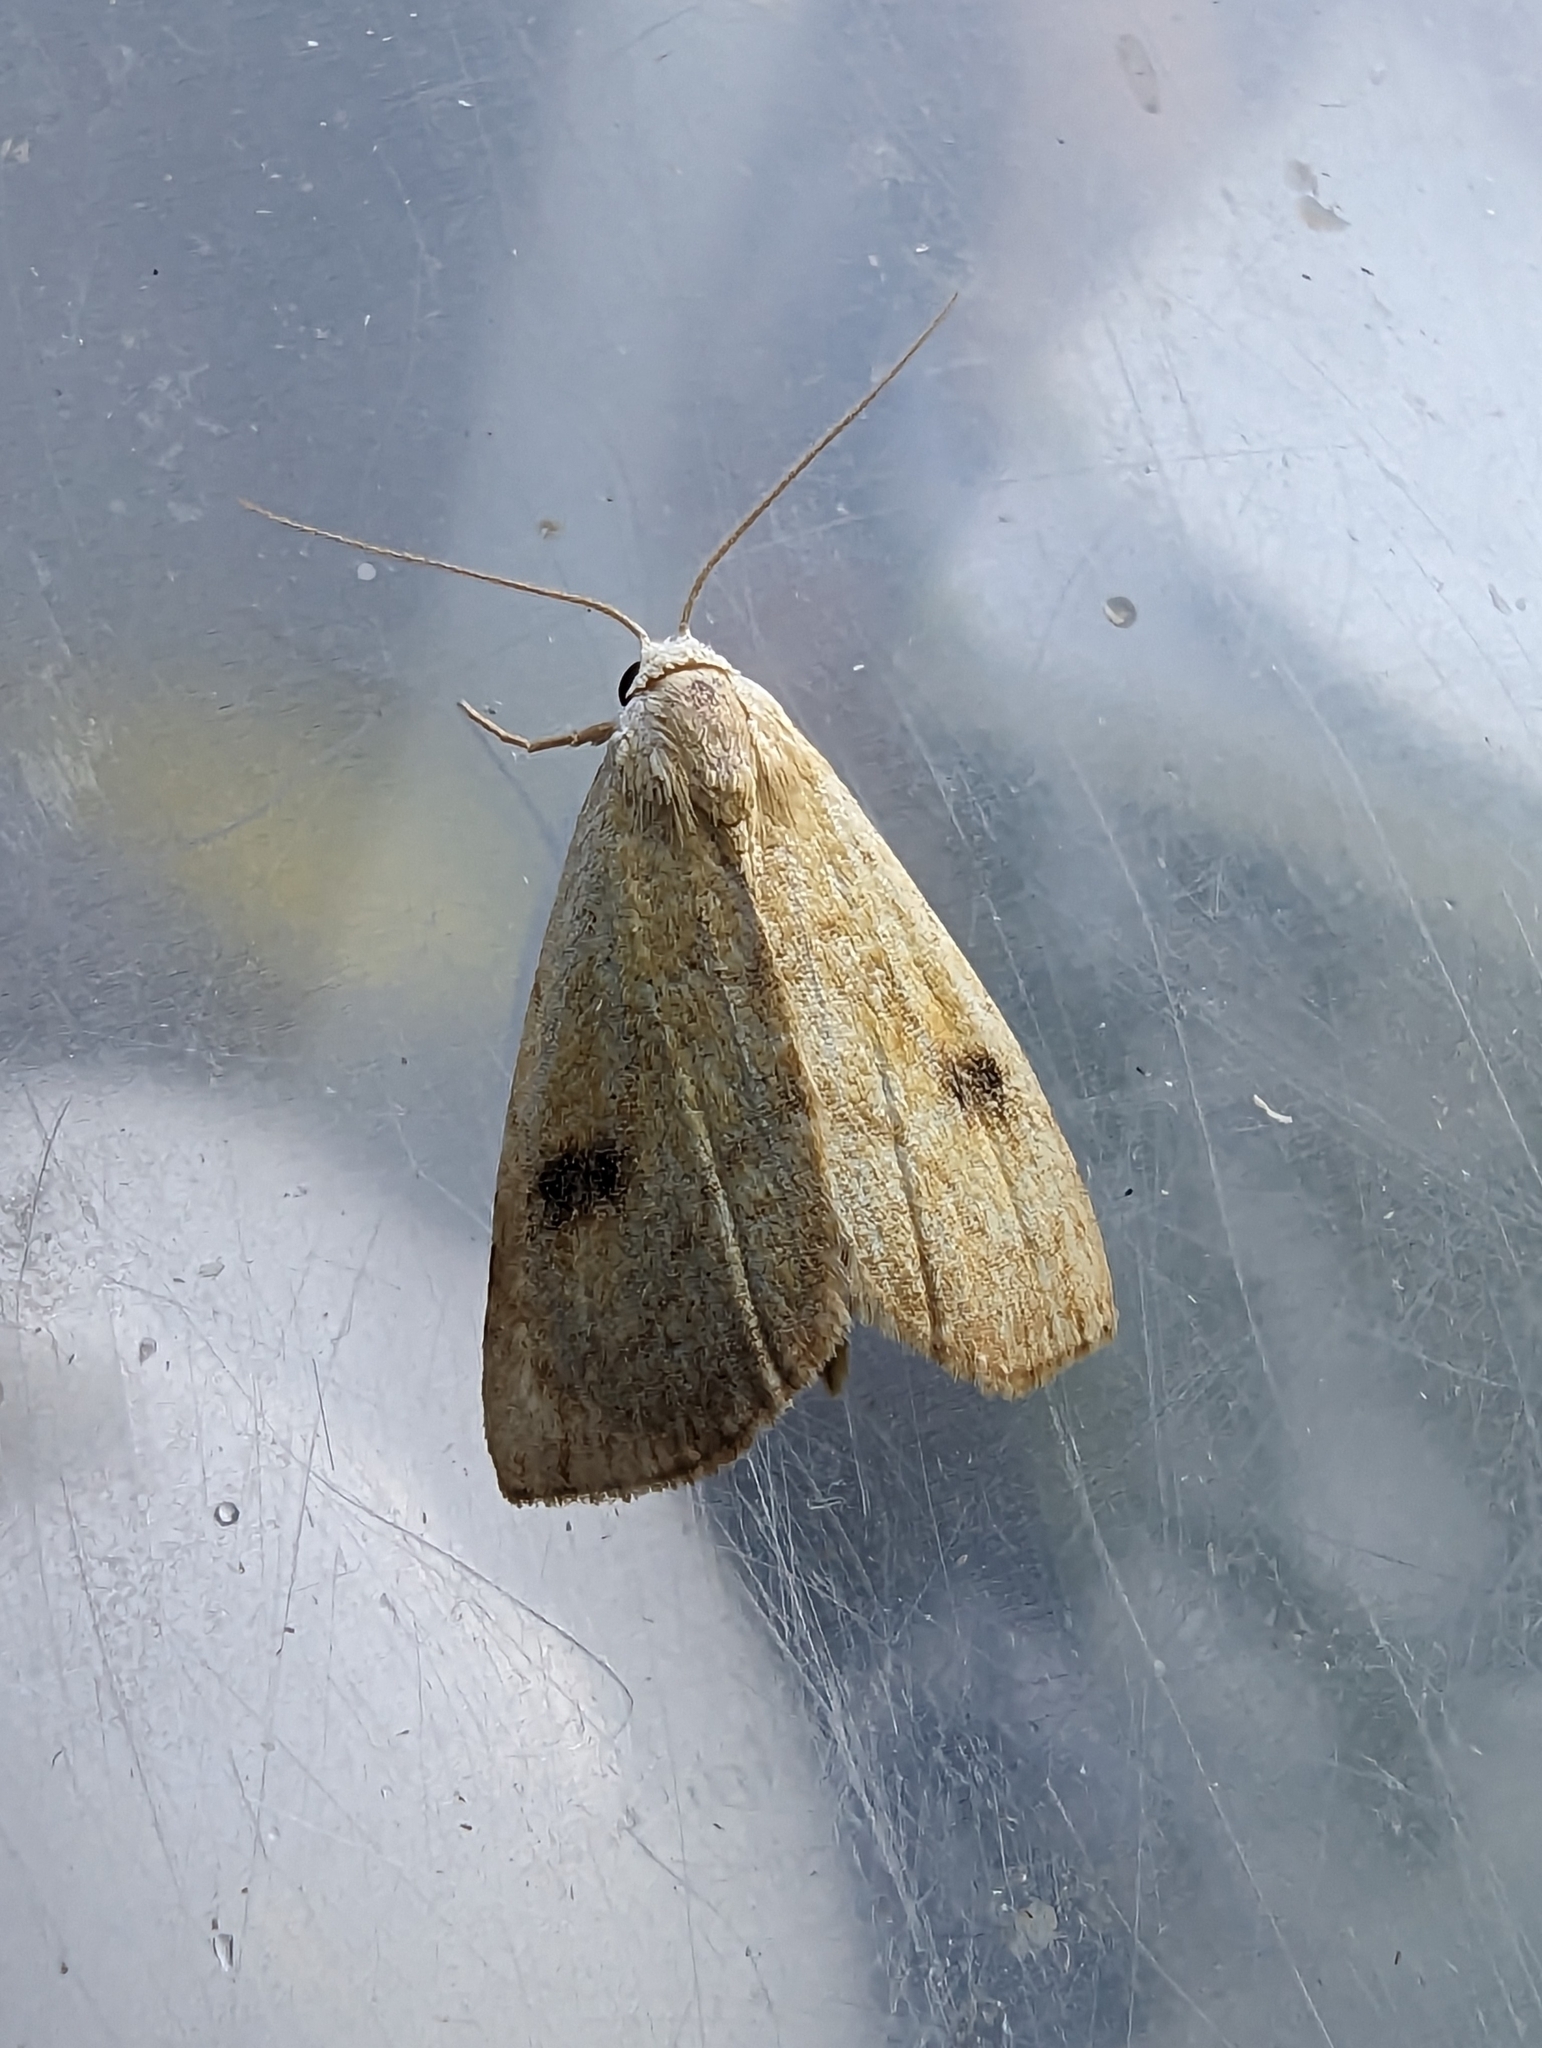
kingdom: Animalia
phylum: Arthropoda
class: Insecta
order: Lepidoptera
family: Erebidae
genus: Rivula
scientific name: Rivula sericealis
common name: Straw dot
